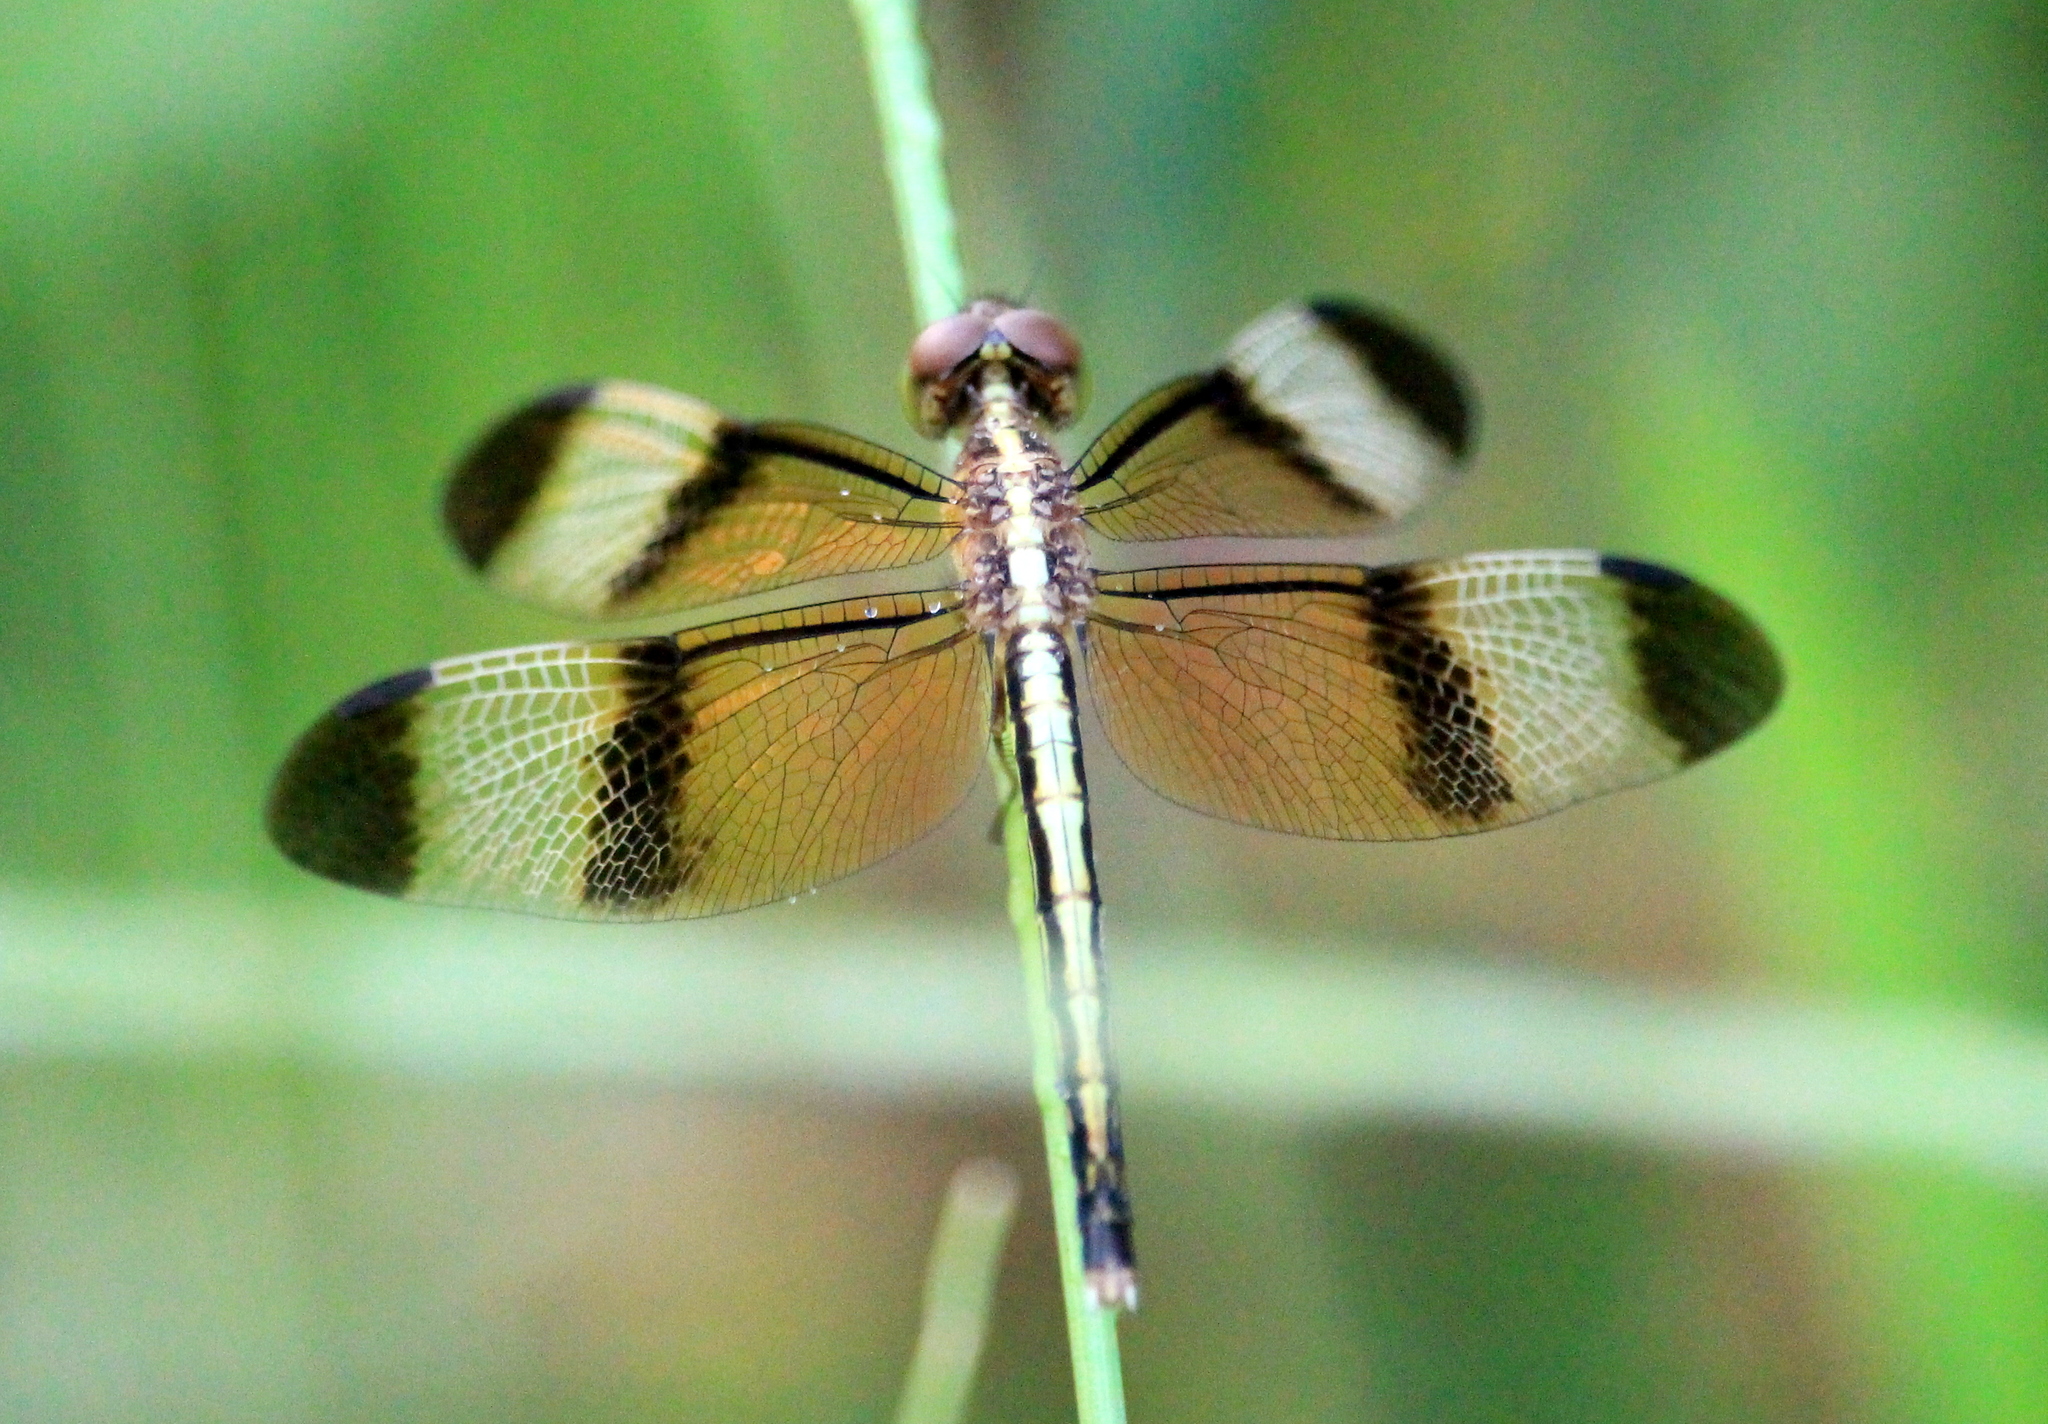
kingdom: Animalia
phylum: Arthropoda
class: Insecta
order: Odonata
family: Libellulidae
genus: Neurothemis
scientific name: Neurothemis tullia
